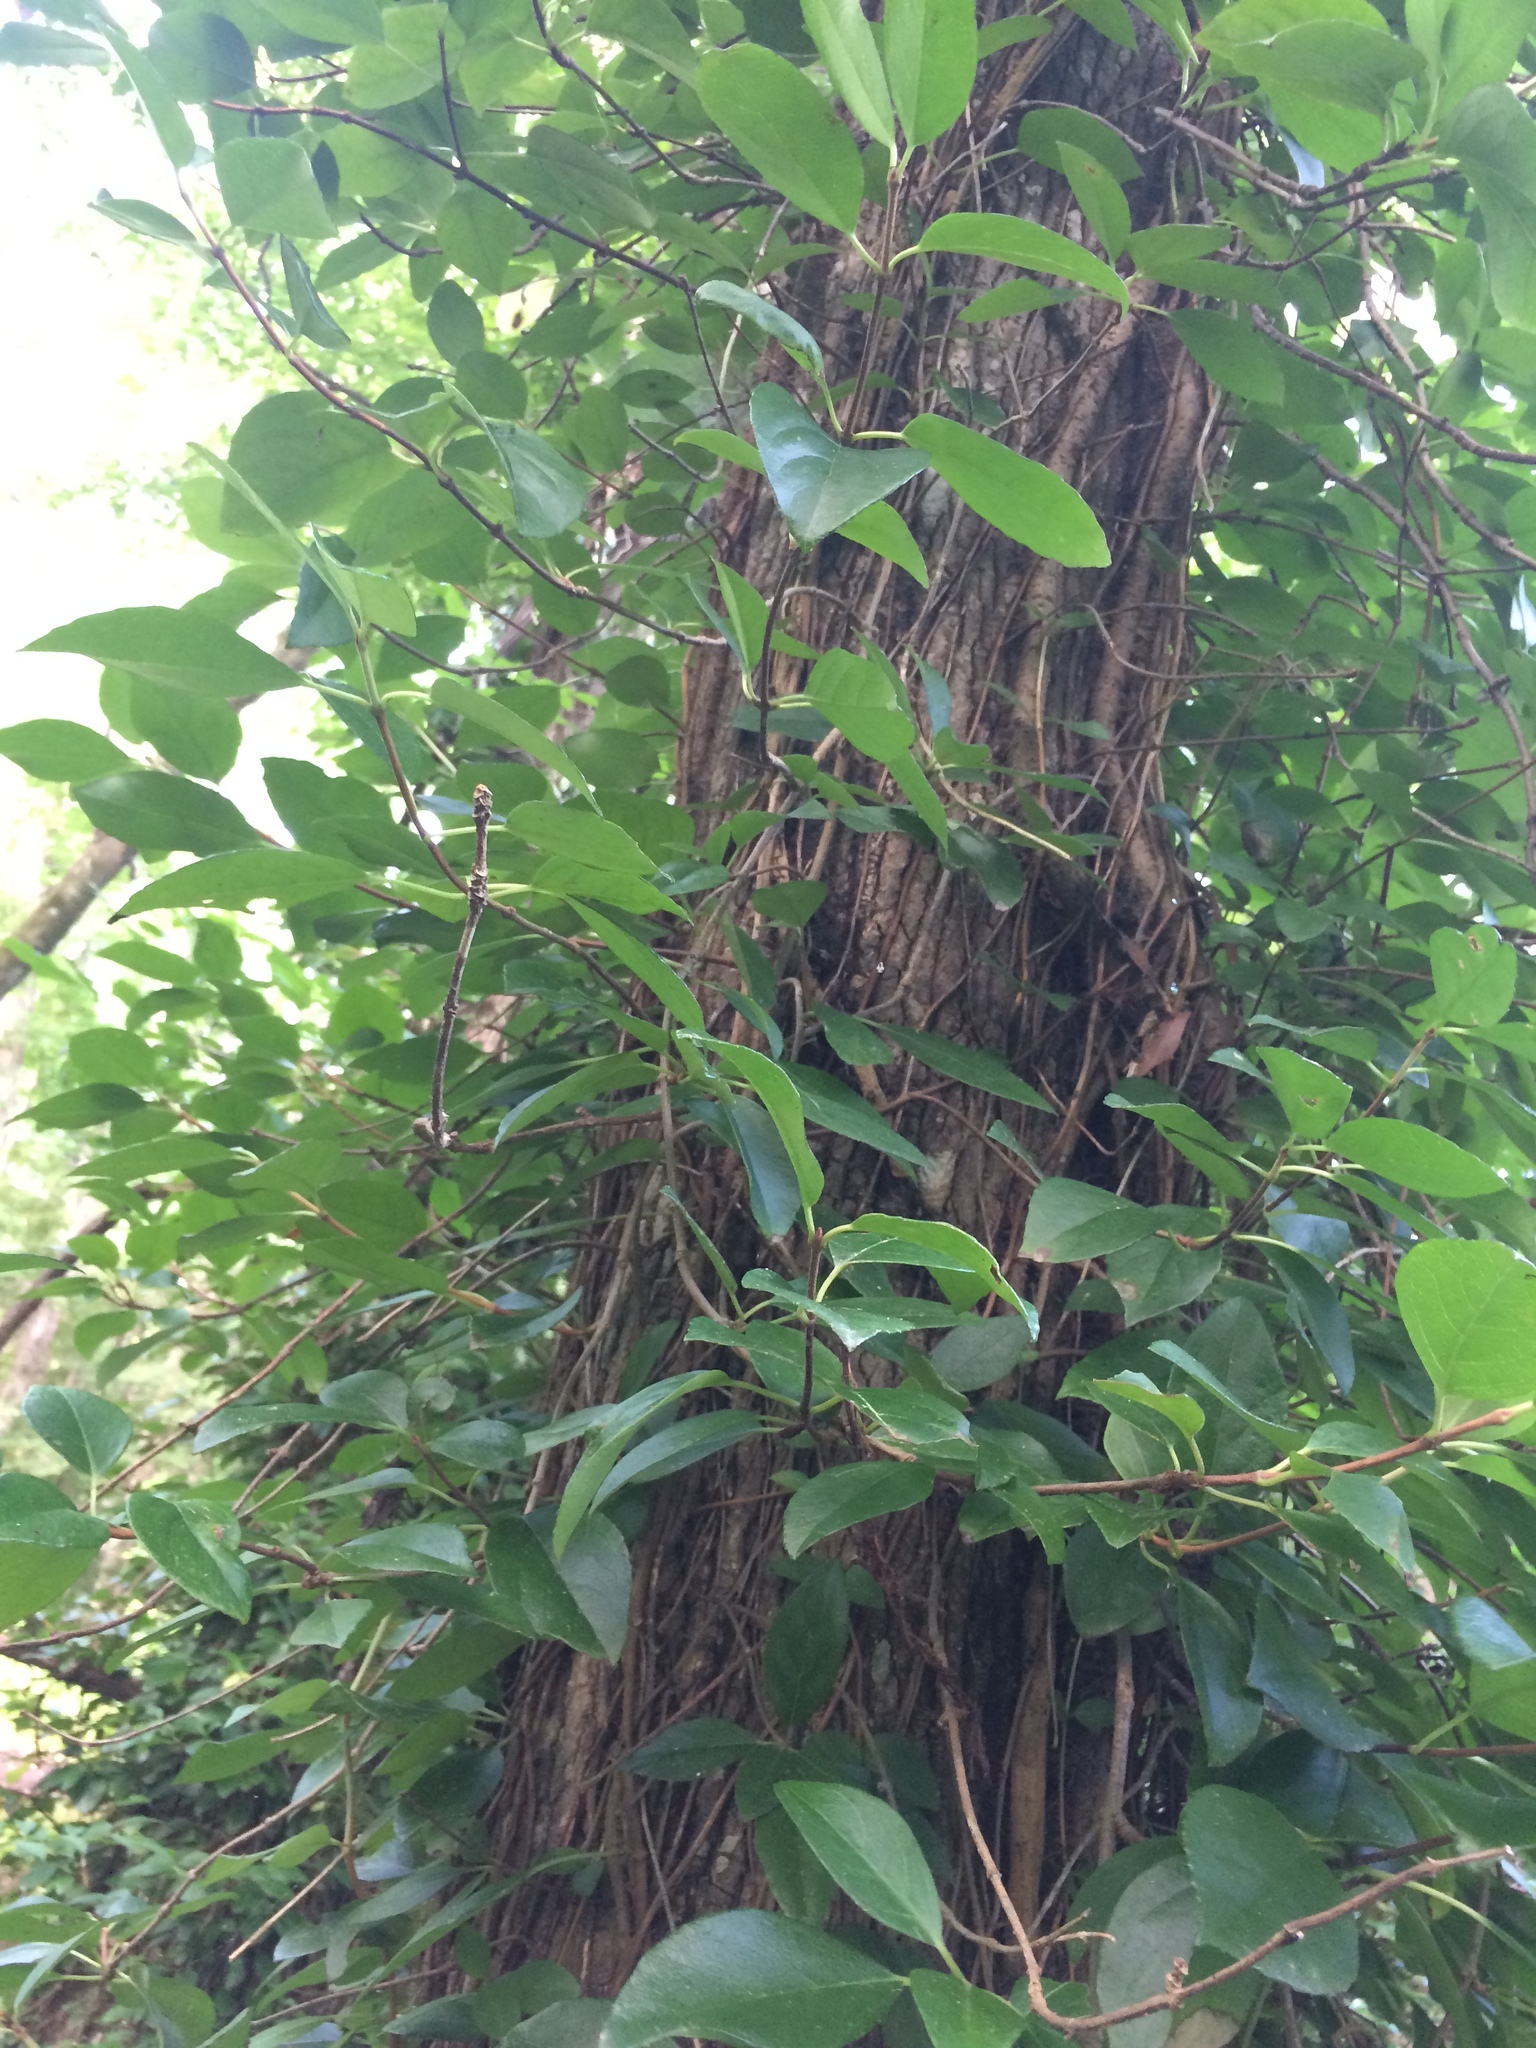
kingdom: Plantae
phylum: Tracheophyta
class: Magnoliopsida
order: Cornales
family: Hydrangeaceae
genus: Hydrangea
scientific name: Hydrangea barbara
